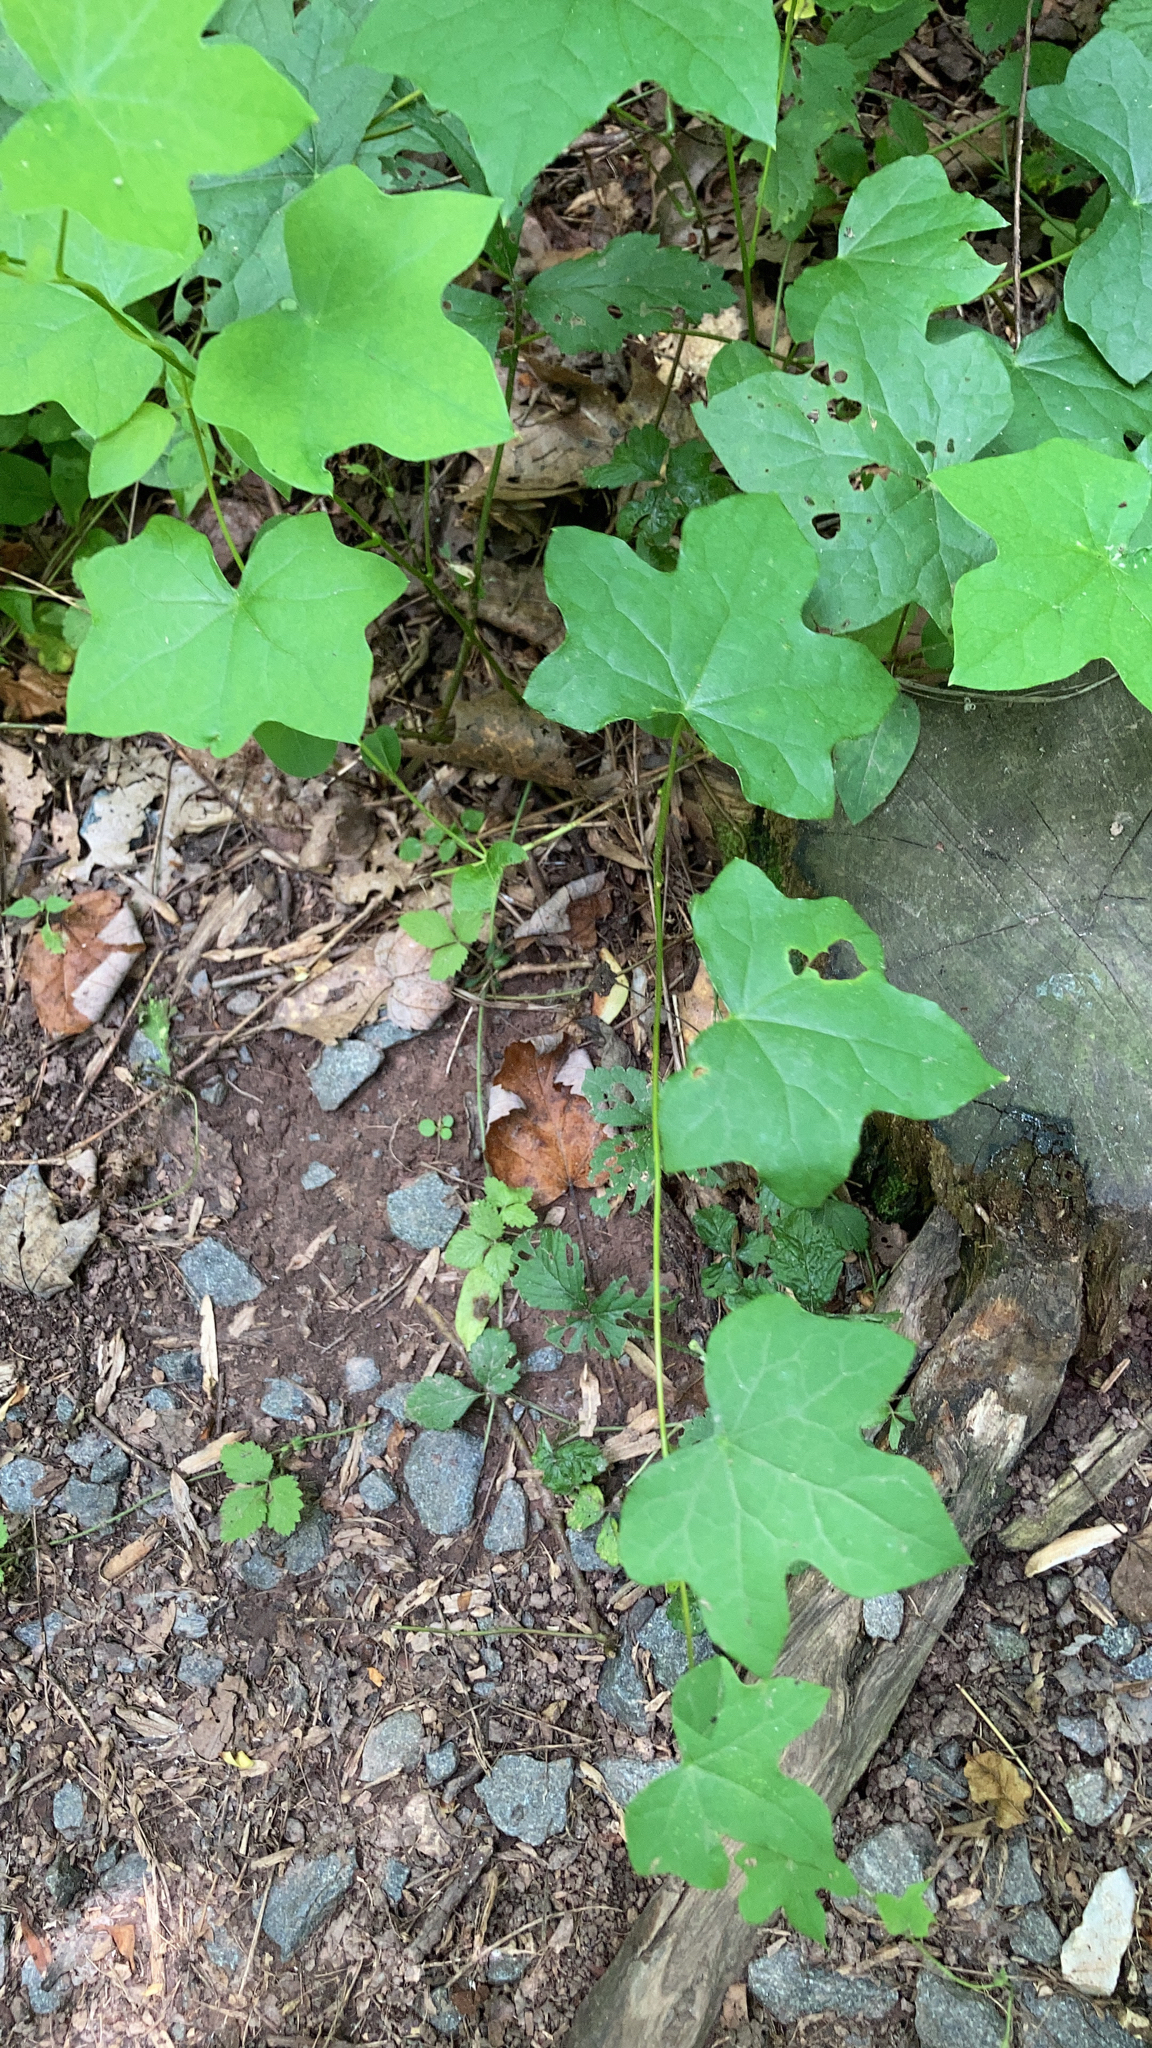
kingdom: Plantae
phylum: Tracheophyta
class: Magnoliopsida
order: Ranunculales
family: Menispermaceae
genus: Menispermum
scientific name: Menispermum canadense
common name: Moonseed
